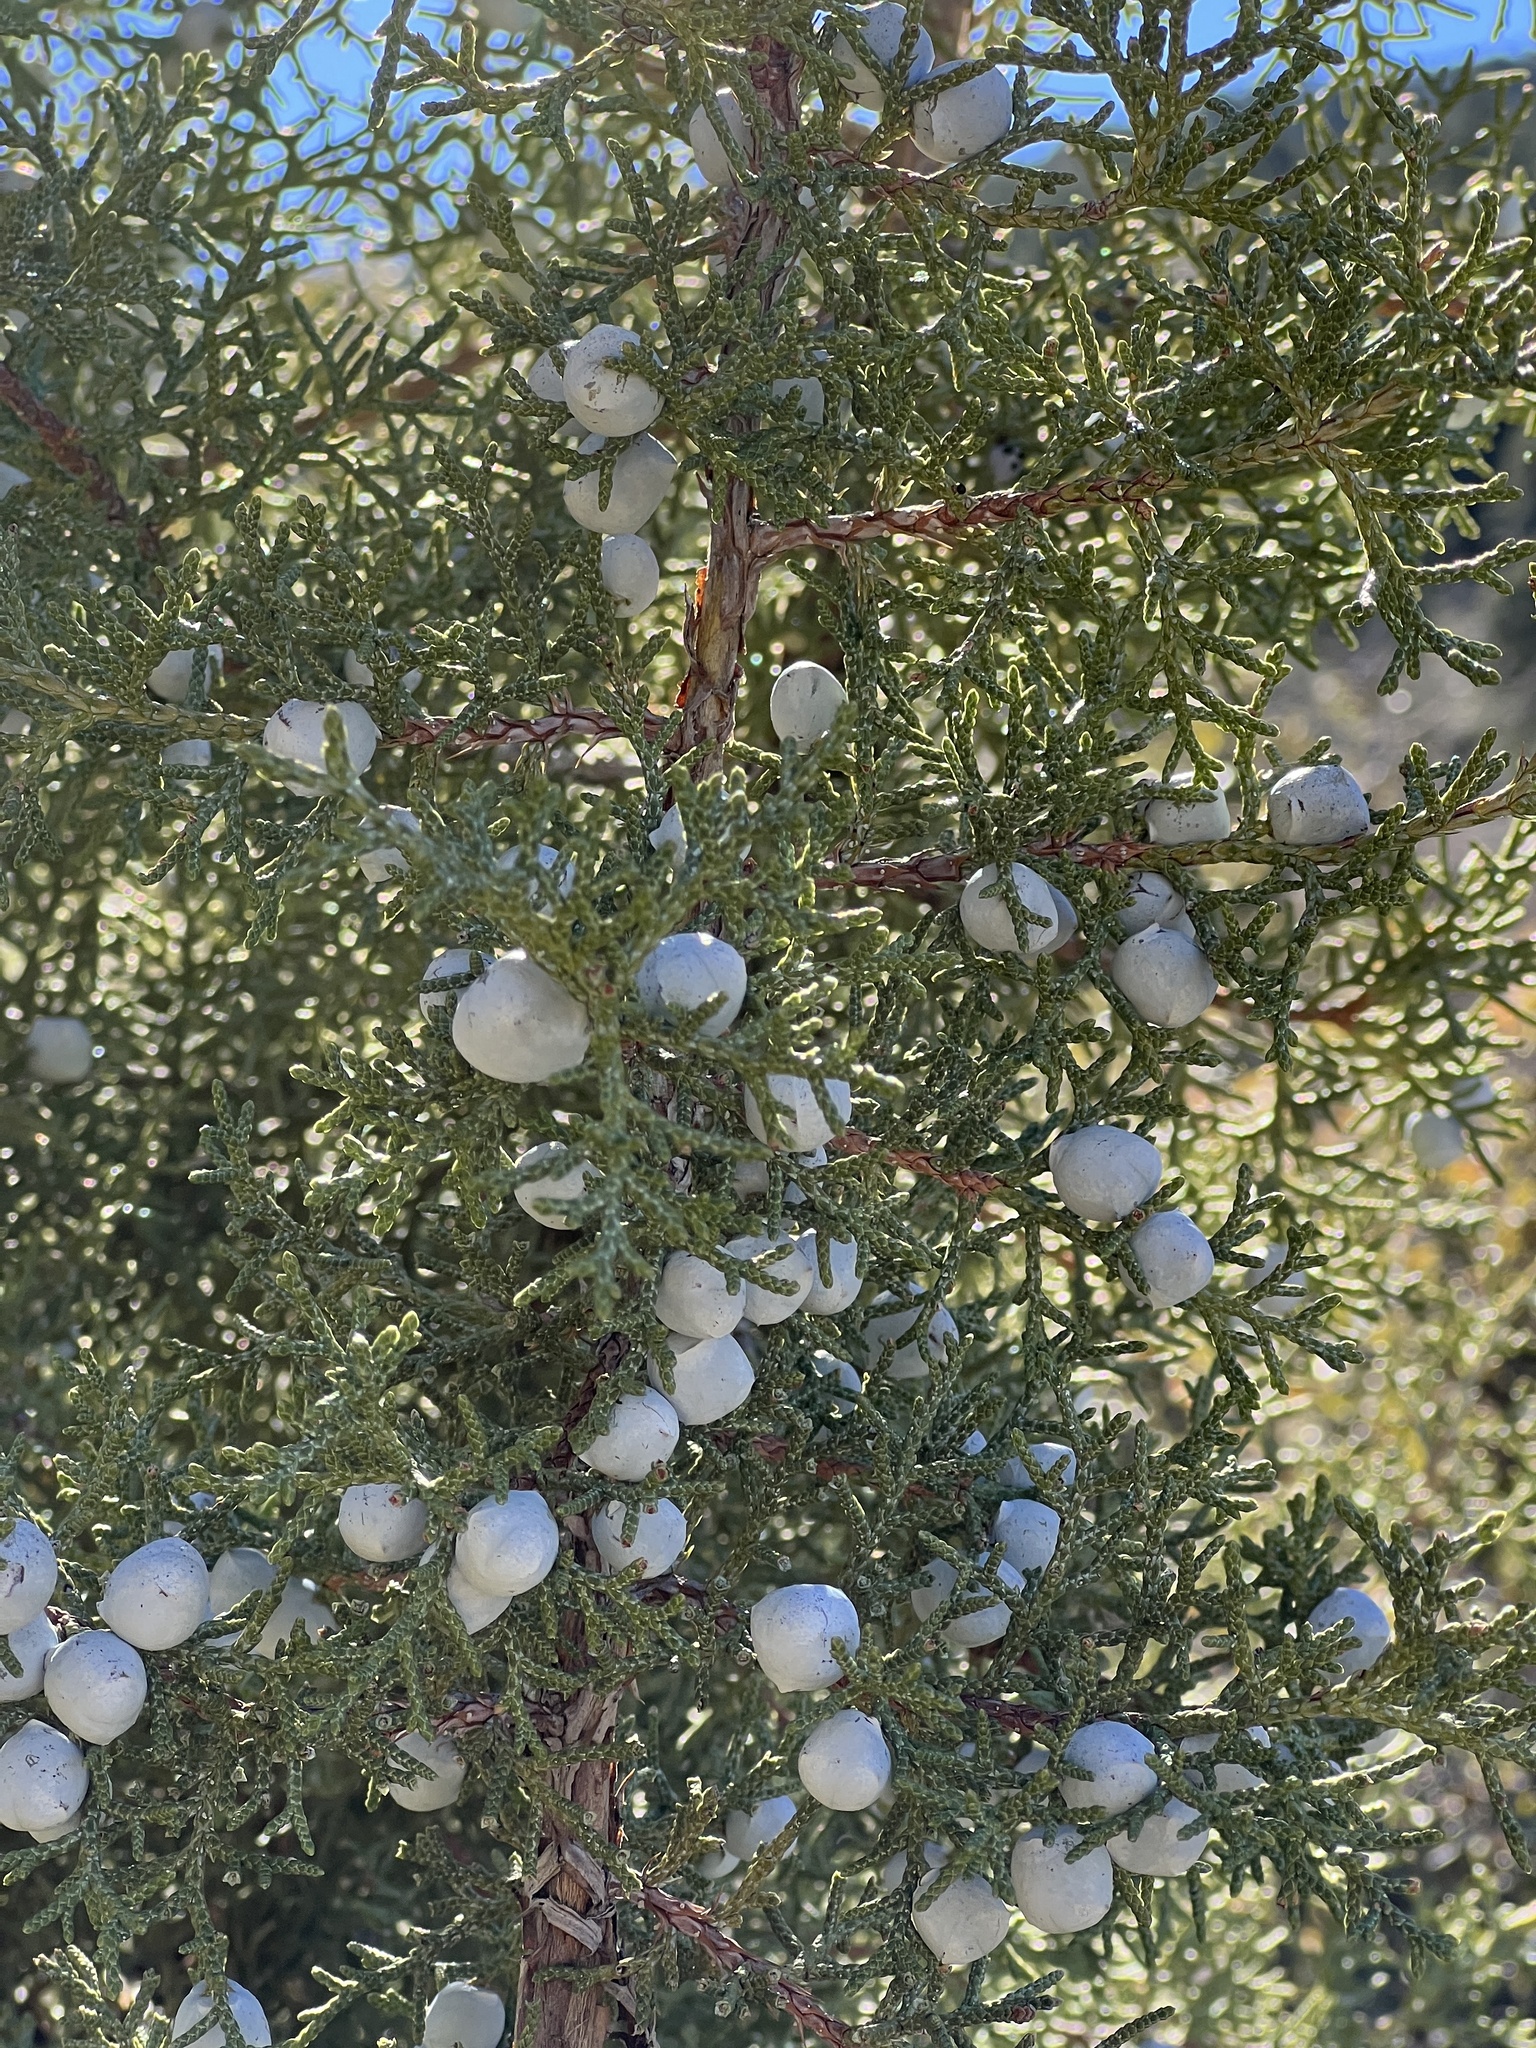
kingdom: Plantae
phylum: Tracheophyta
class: Pinopsida
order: Pinales
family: Cupressaceae
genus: Juniperus
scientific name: Juniperus osteosperma
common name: Utah juniper
